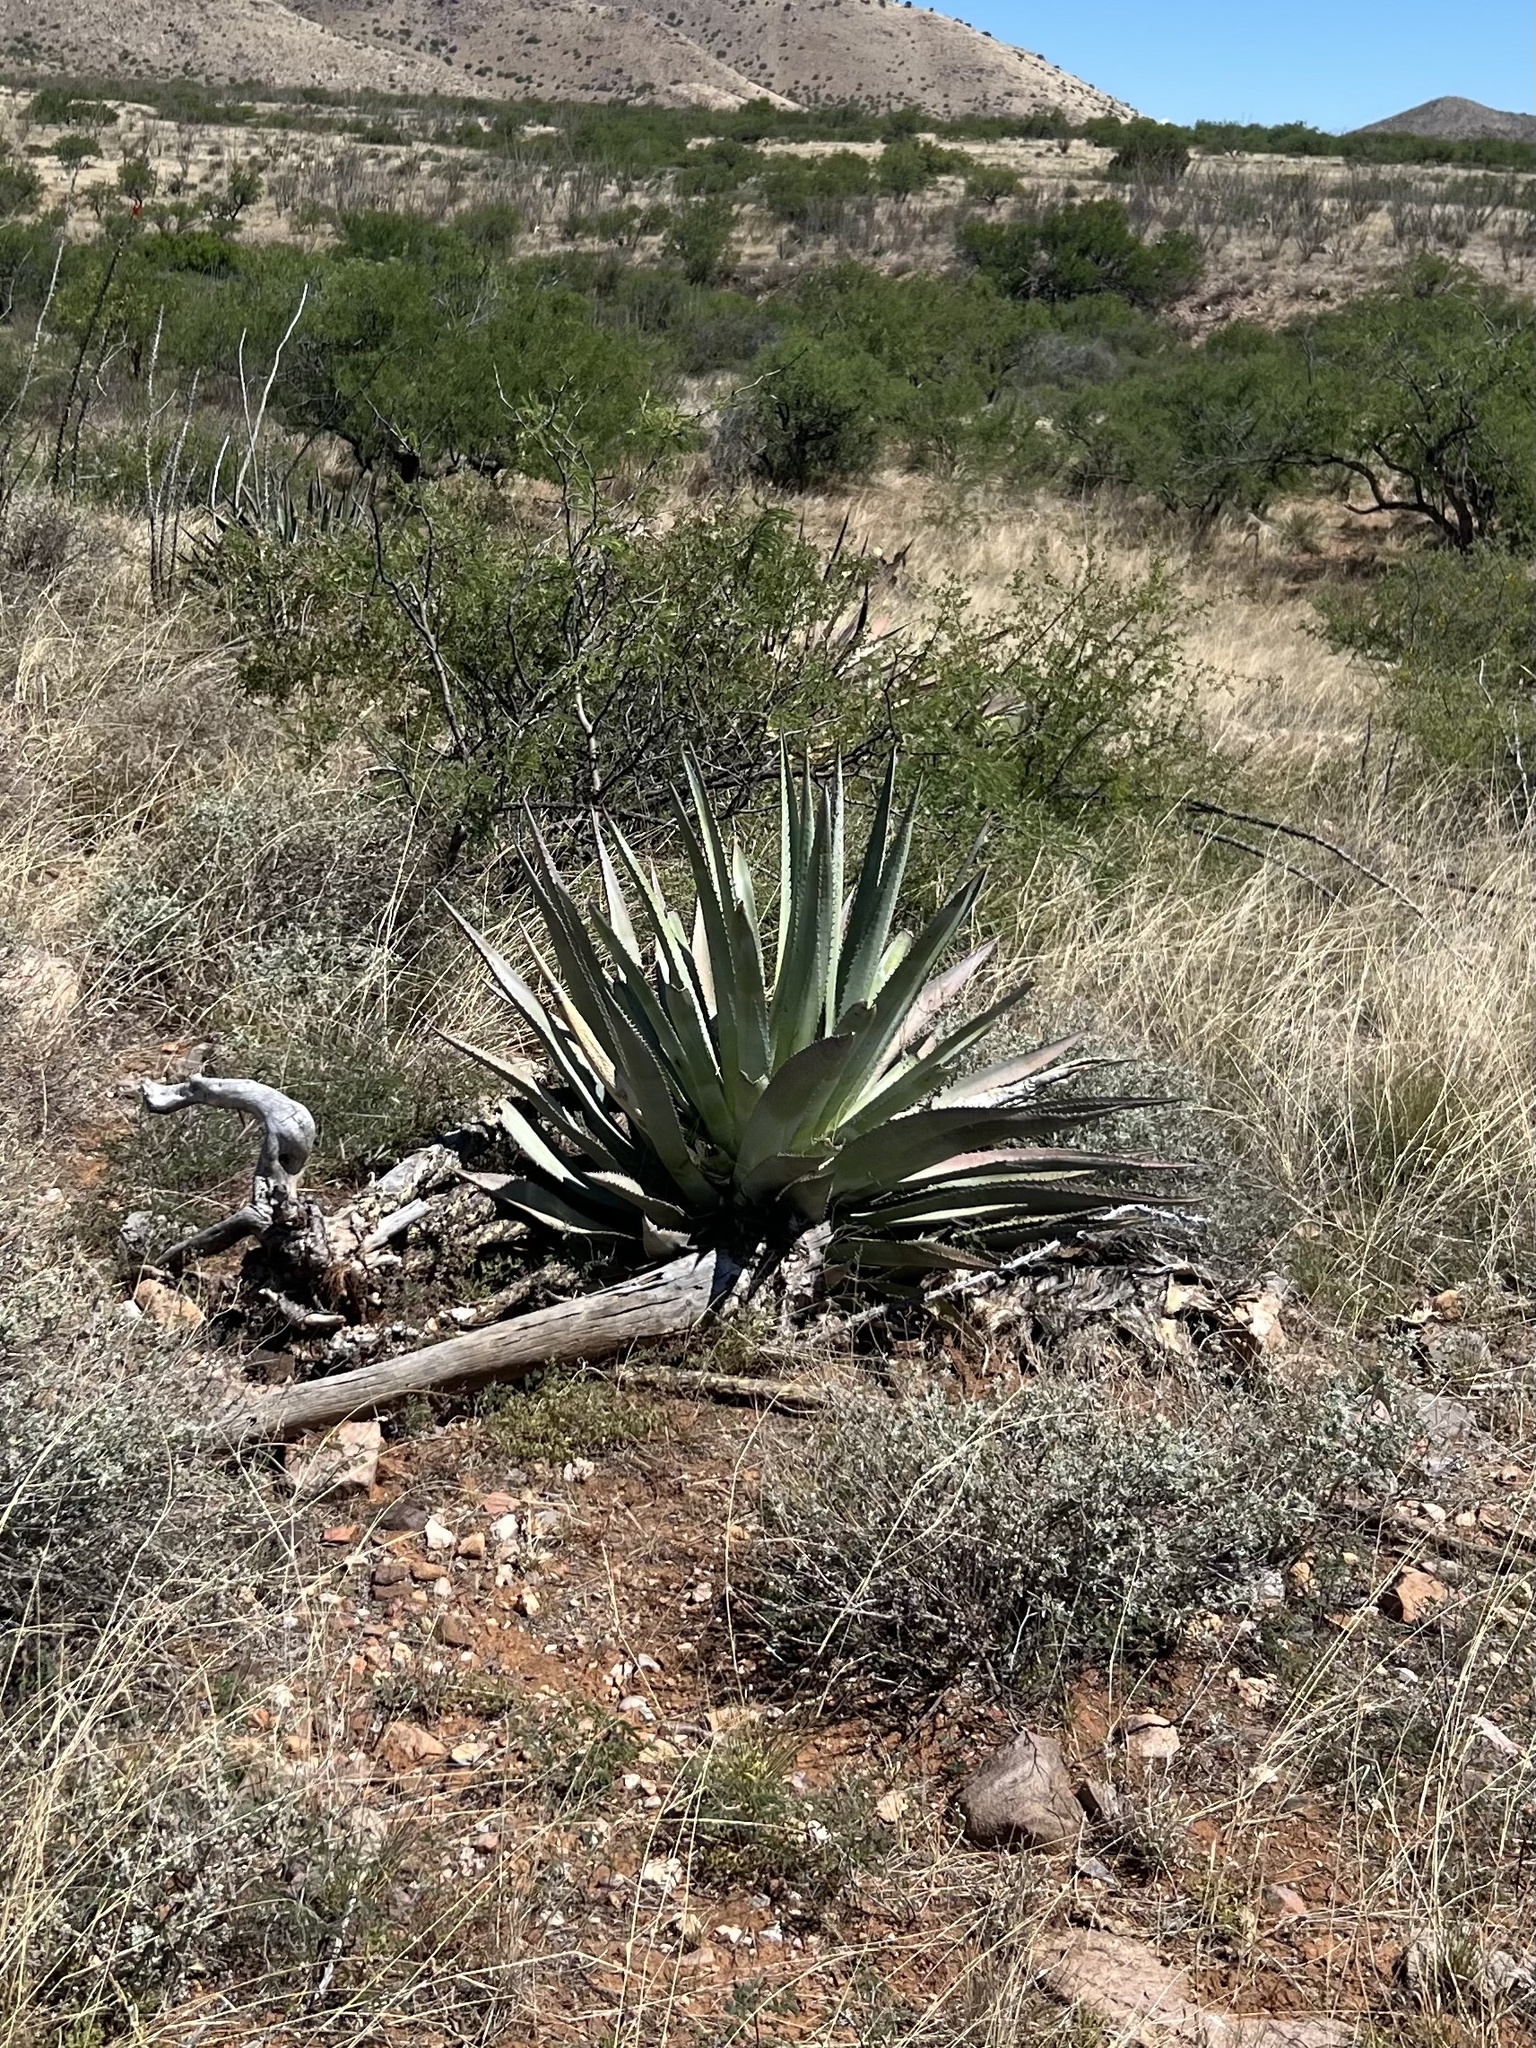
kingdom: Plantae
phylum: Tracheophyta
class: Liliopsida
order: Asparagales
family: Asparagaceae
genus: Agave
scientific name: Agave palmeri
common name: Palmer agave
